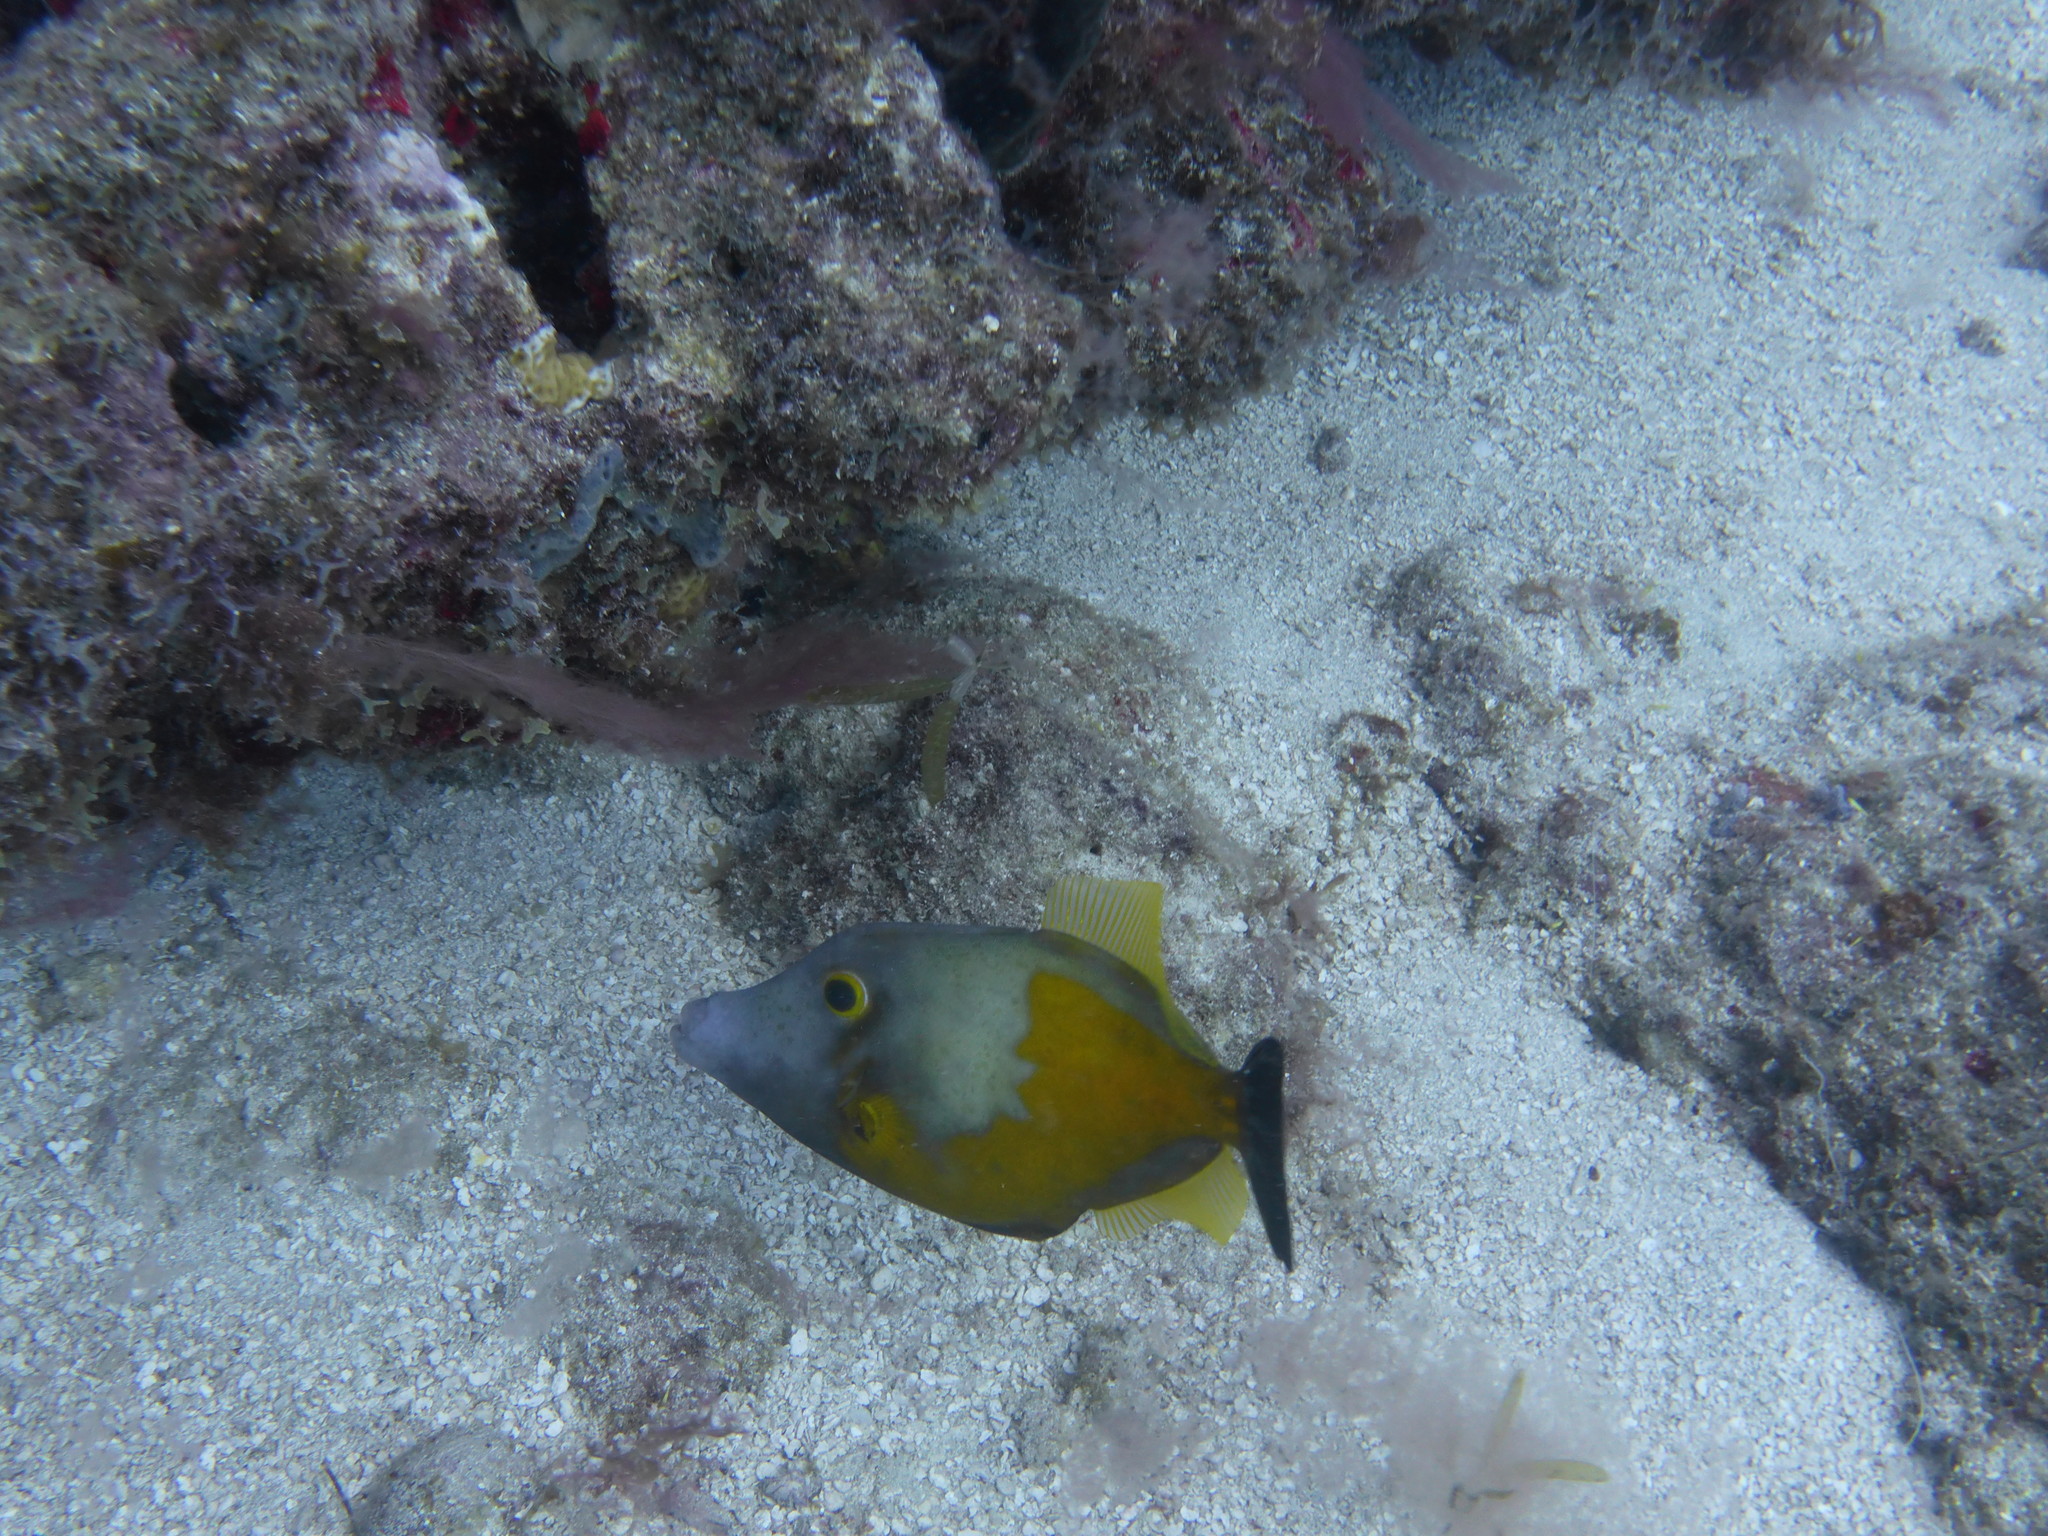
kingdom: Animalia
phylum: Chordata
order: Tetraodontiformes
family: Monacanthidae
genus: Cantherhines
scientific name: Cantherhines macrocerus
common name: Whitespotted filefish
